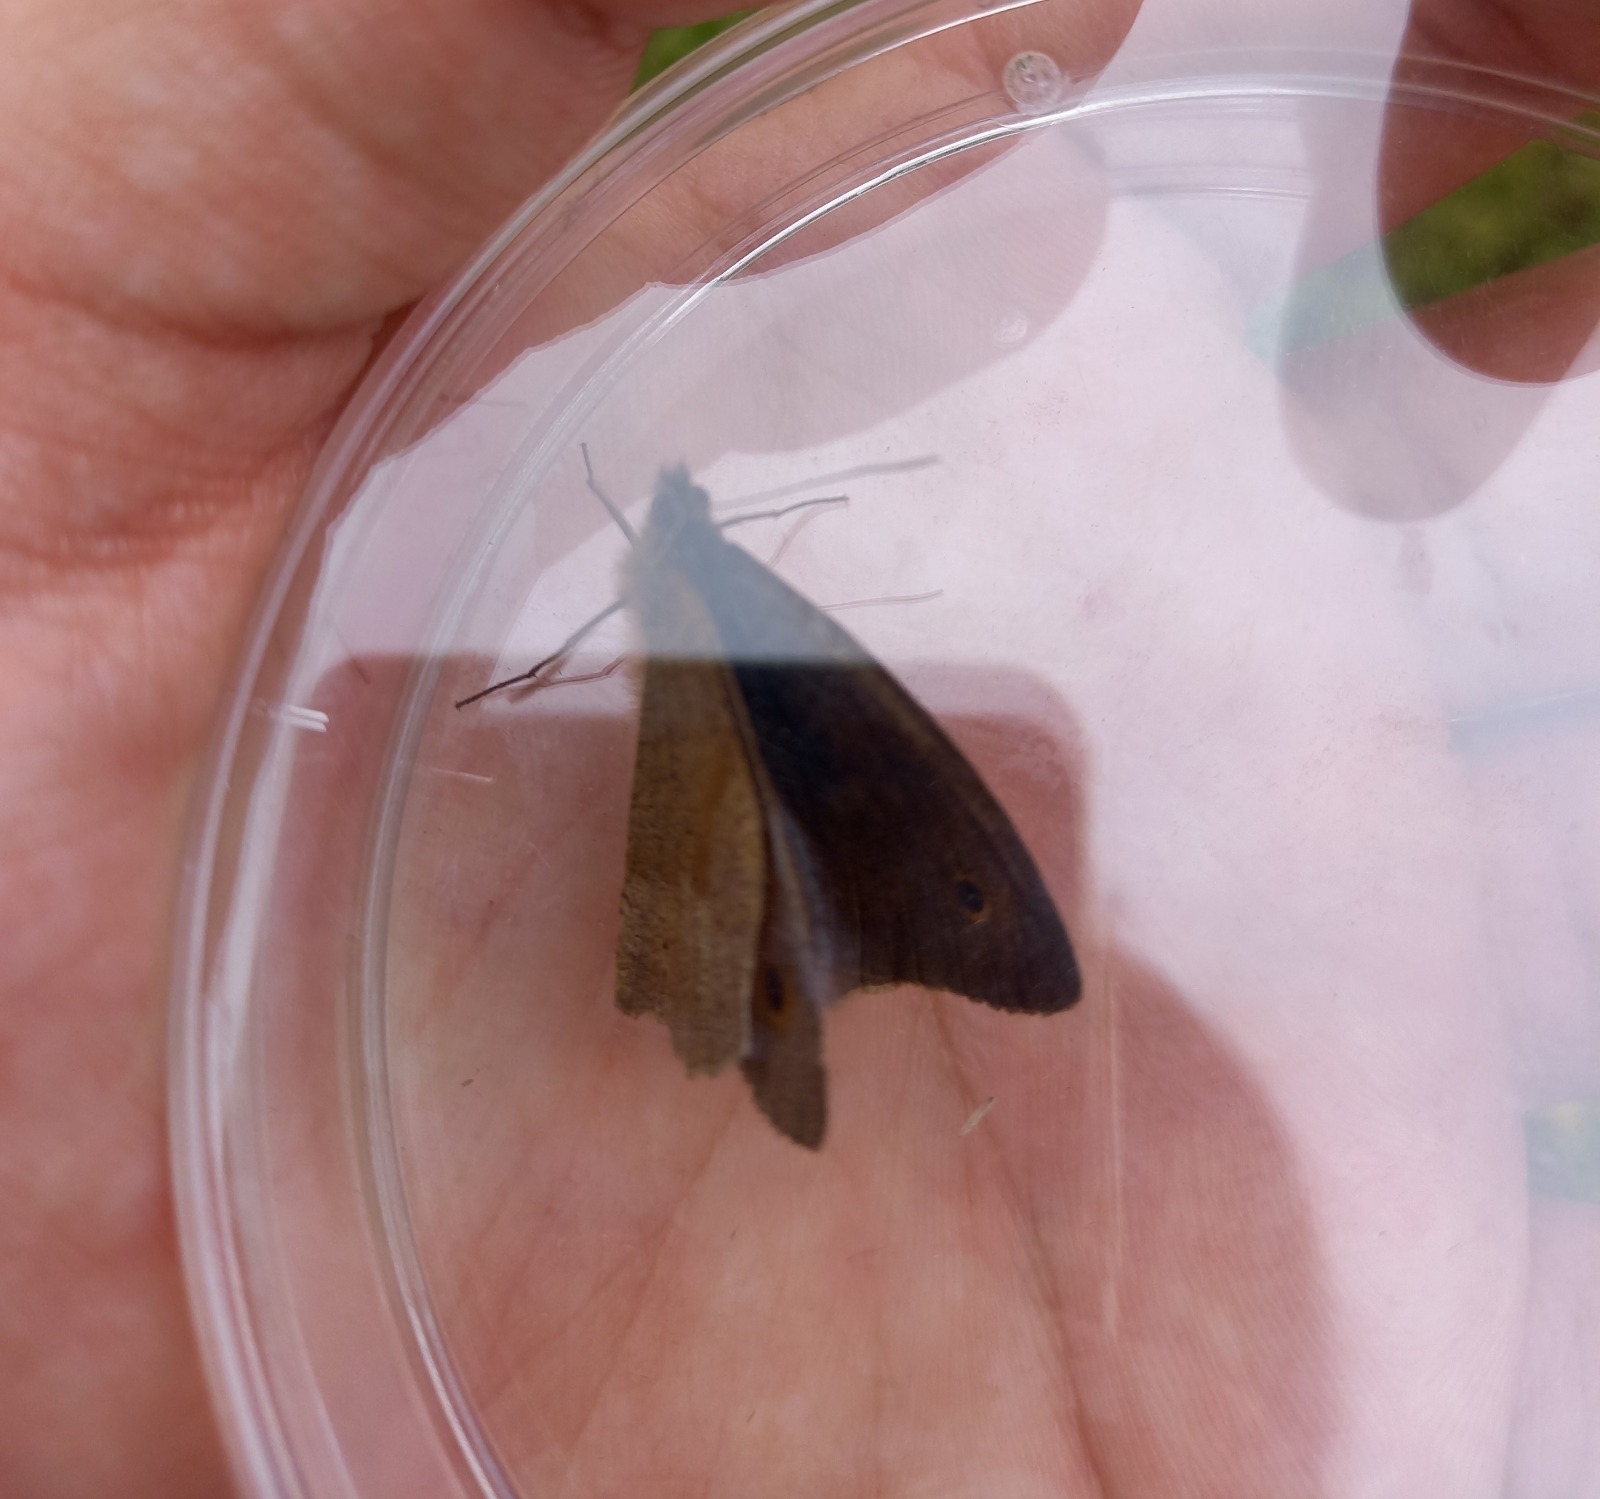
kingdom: Animalia
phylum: Arthropoda
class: Insecta
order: Lepidoptera
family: Nymphalidae
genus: Maniola
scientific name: Maniola jurtina
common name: Meadow brown
